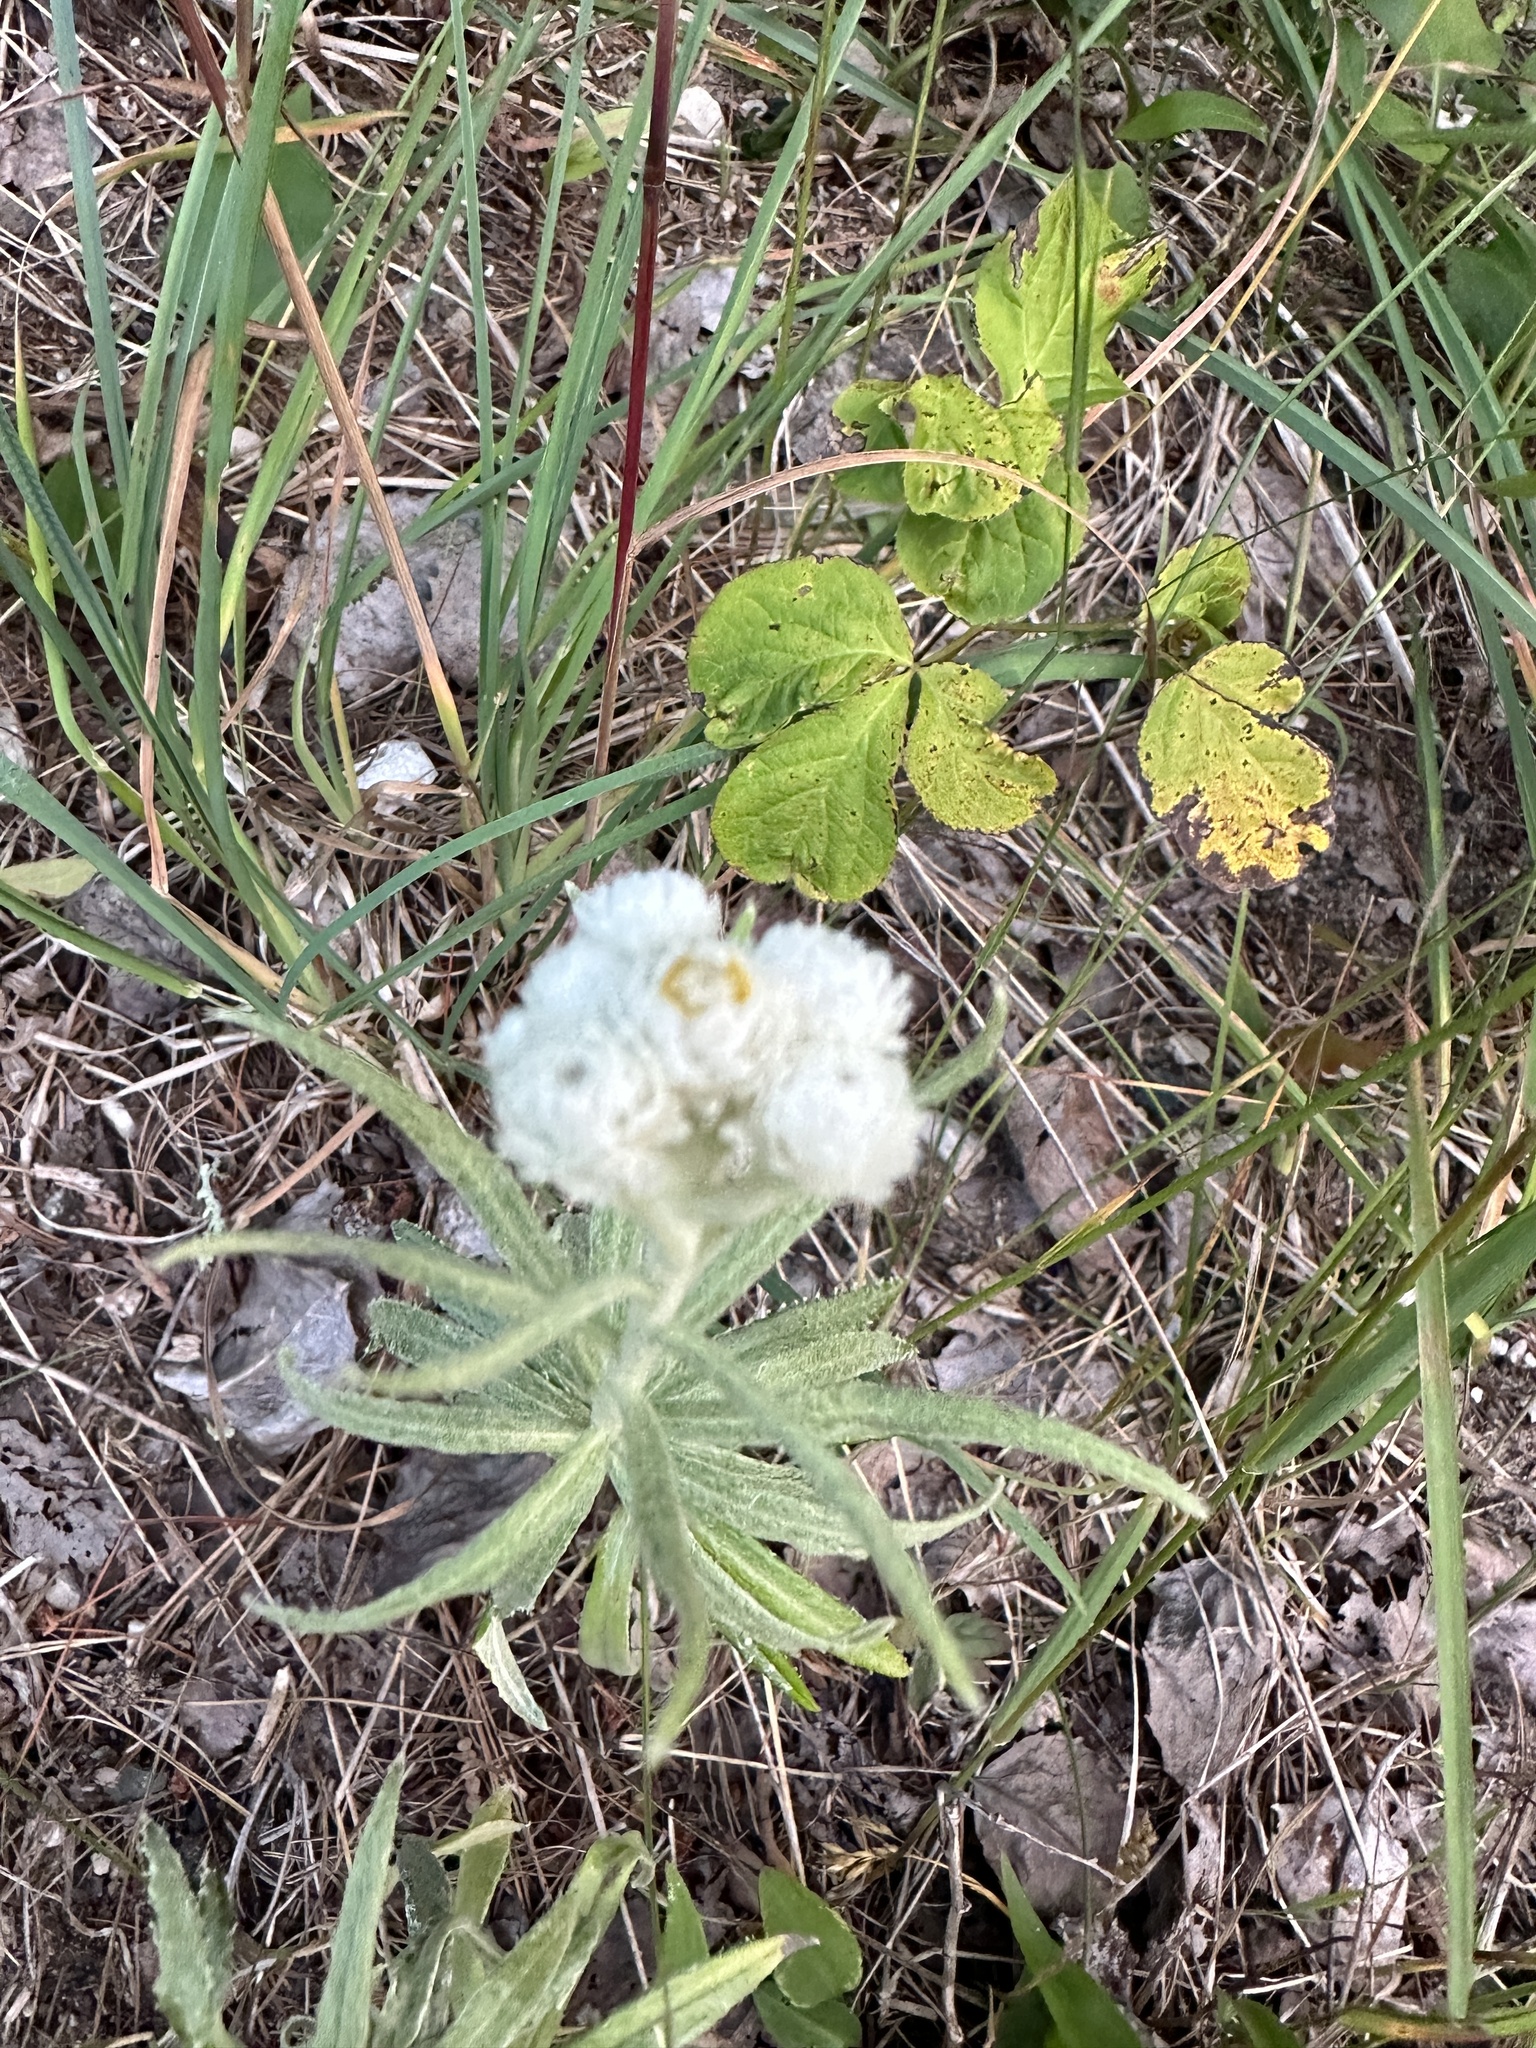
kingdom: Plantae
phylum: Tracheophyta
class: Magnoliopsida
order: Asterales
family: Asteraceae
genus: Anaphalis
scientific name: Anaphalis margaritacea
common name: Pearly everlasting
